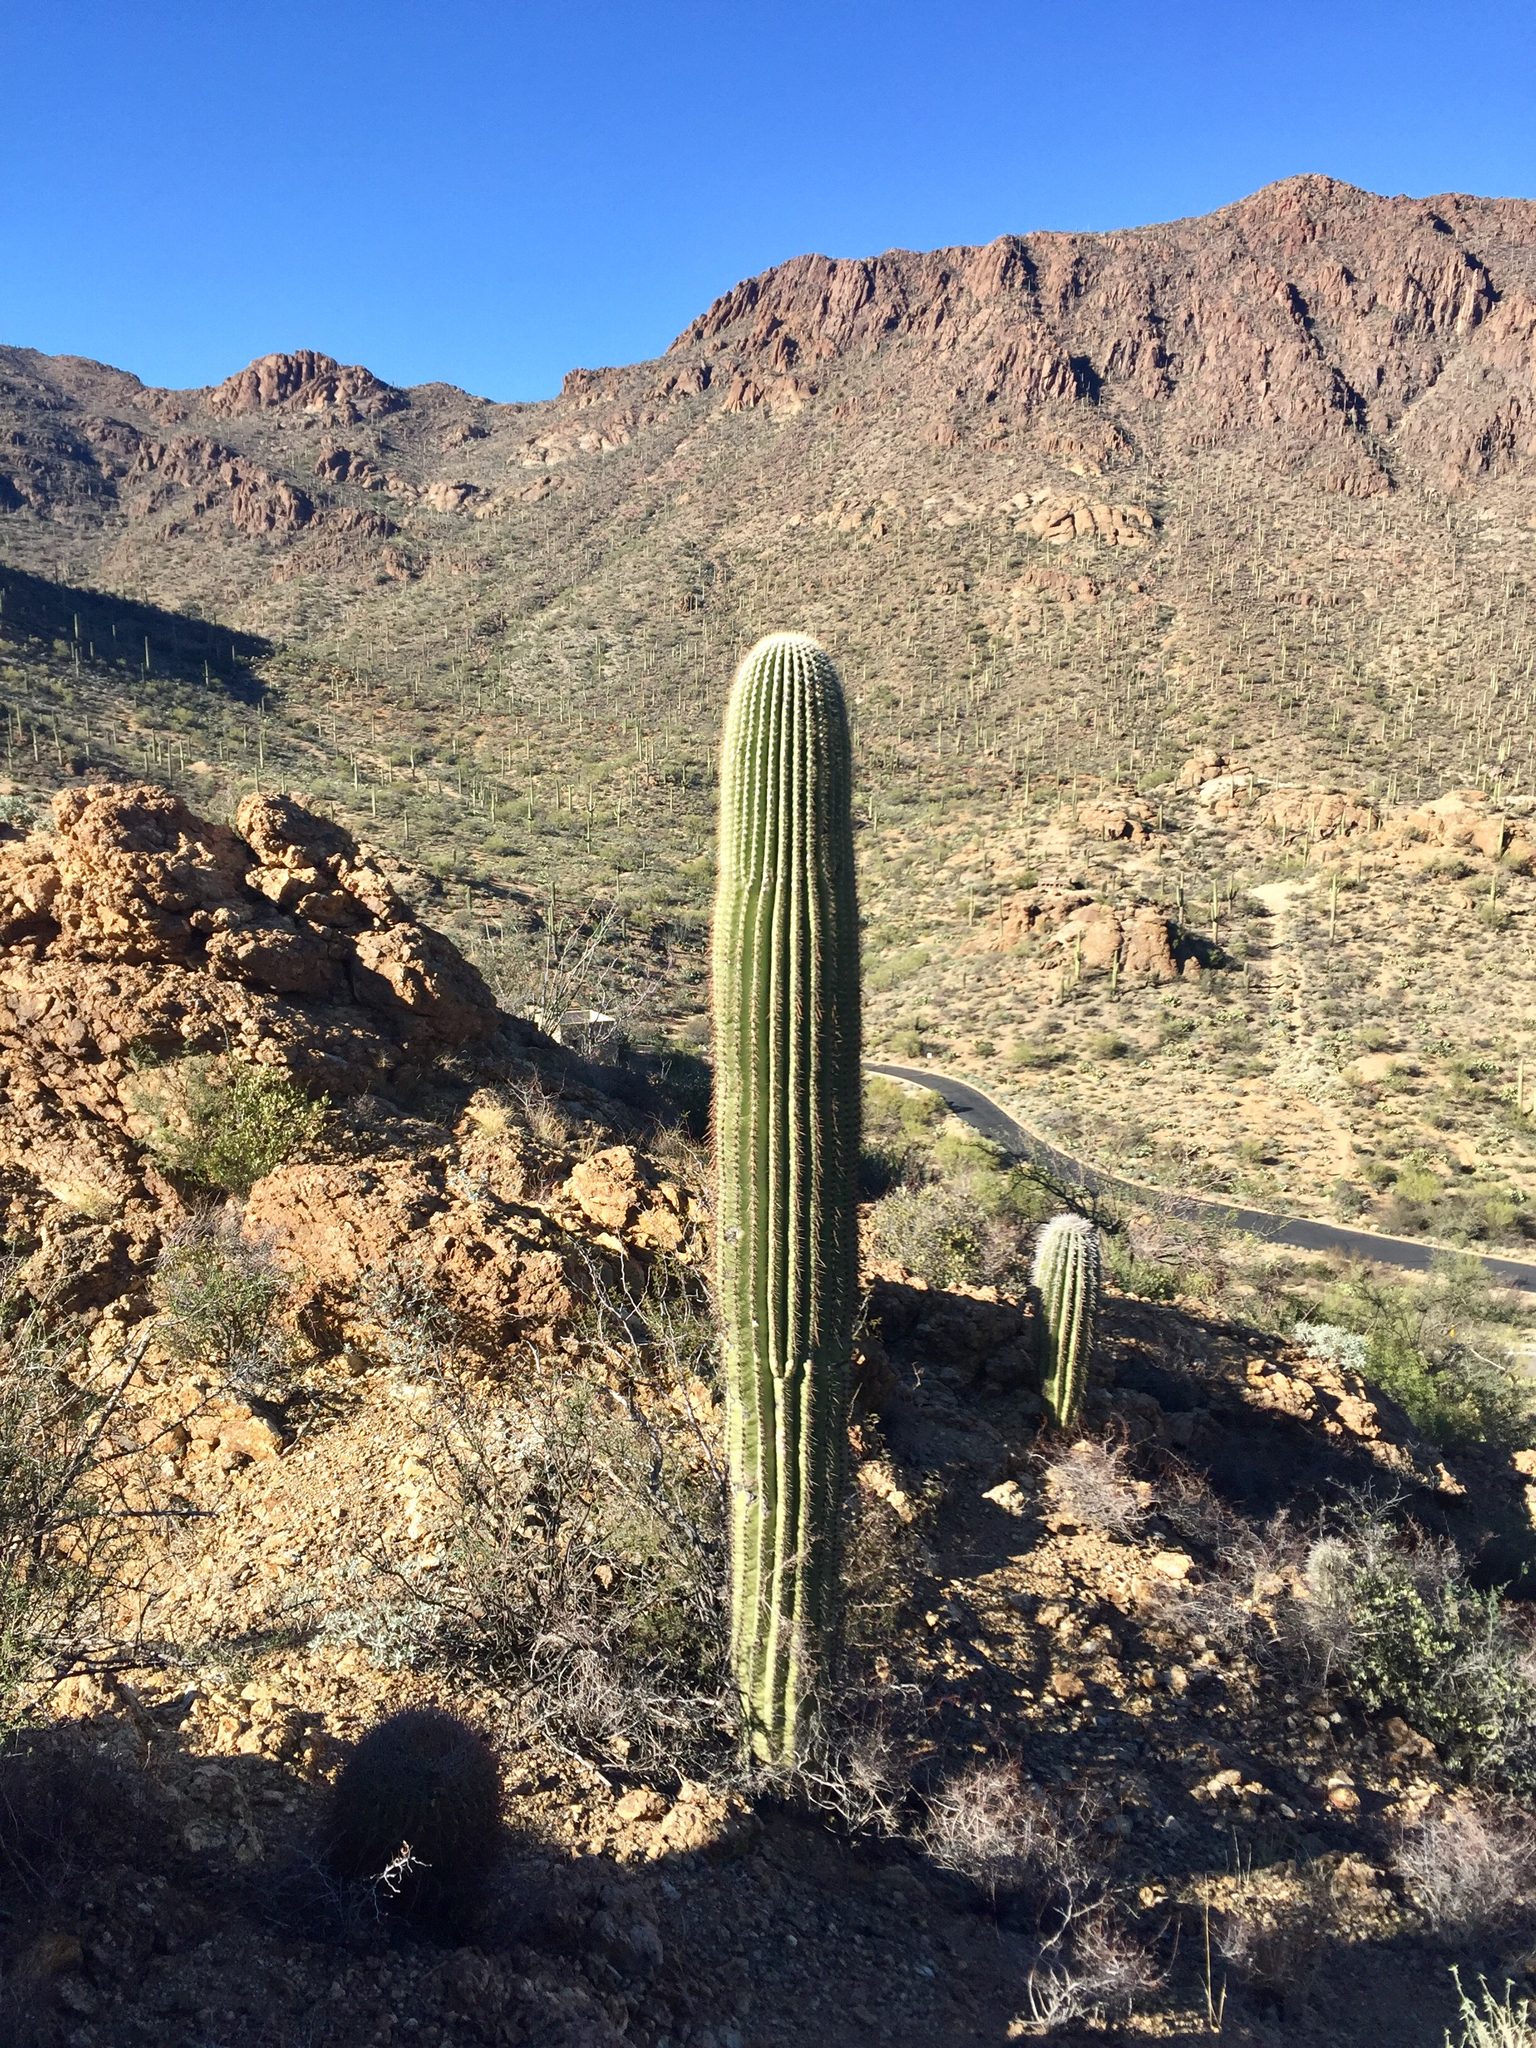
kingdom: Plantae
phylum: Tracheophyta
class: Magnoliopsida
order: Caryophyllales
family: Cactaceae
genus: Carnegiea
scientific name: Carnegiea gigantea
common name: Saguaro
